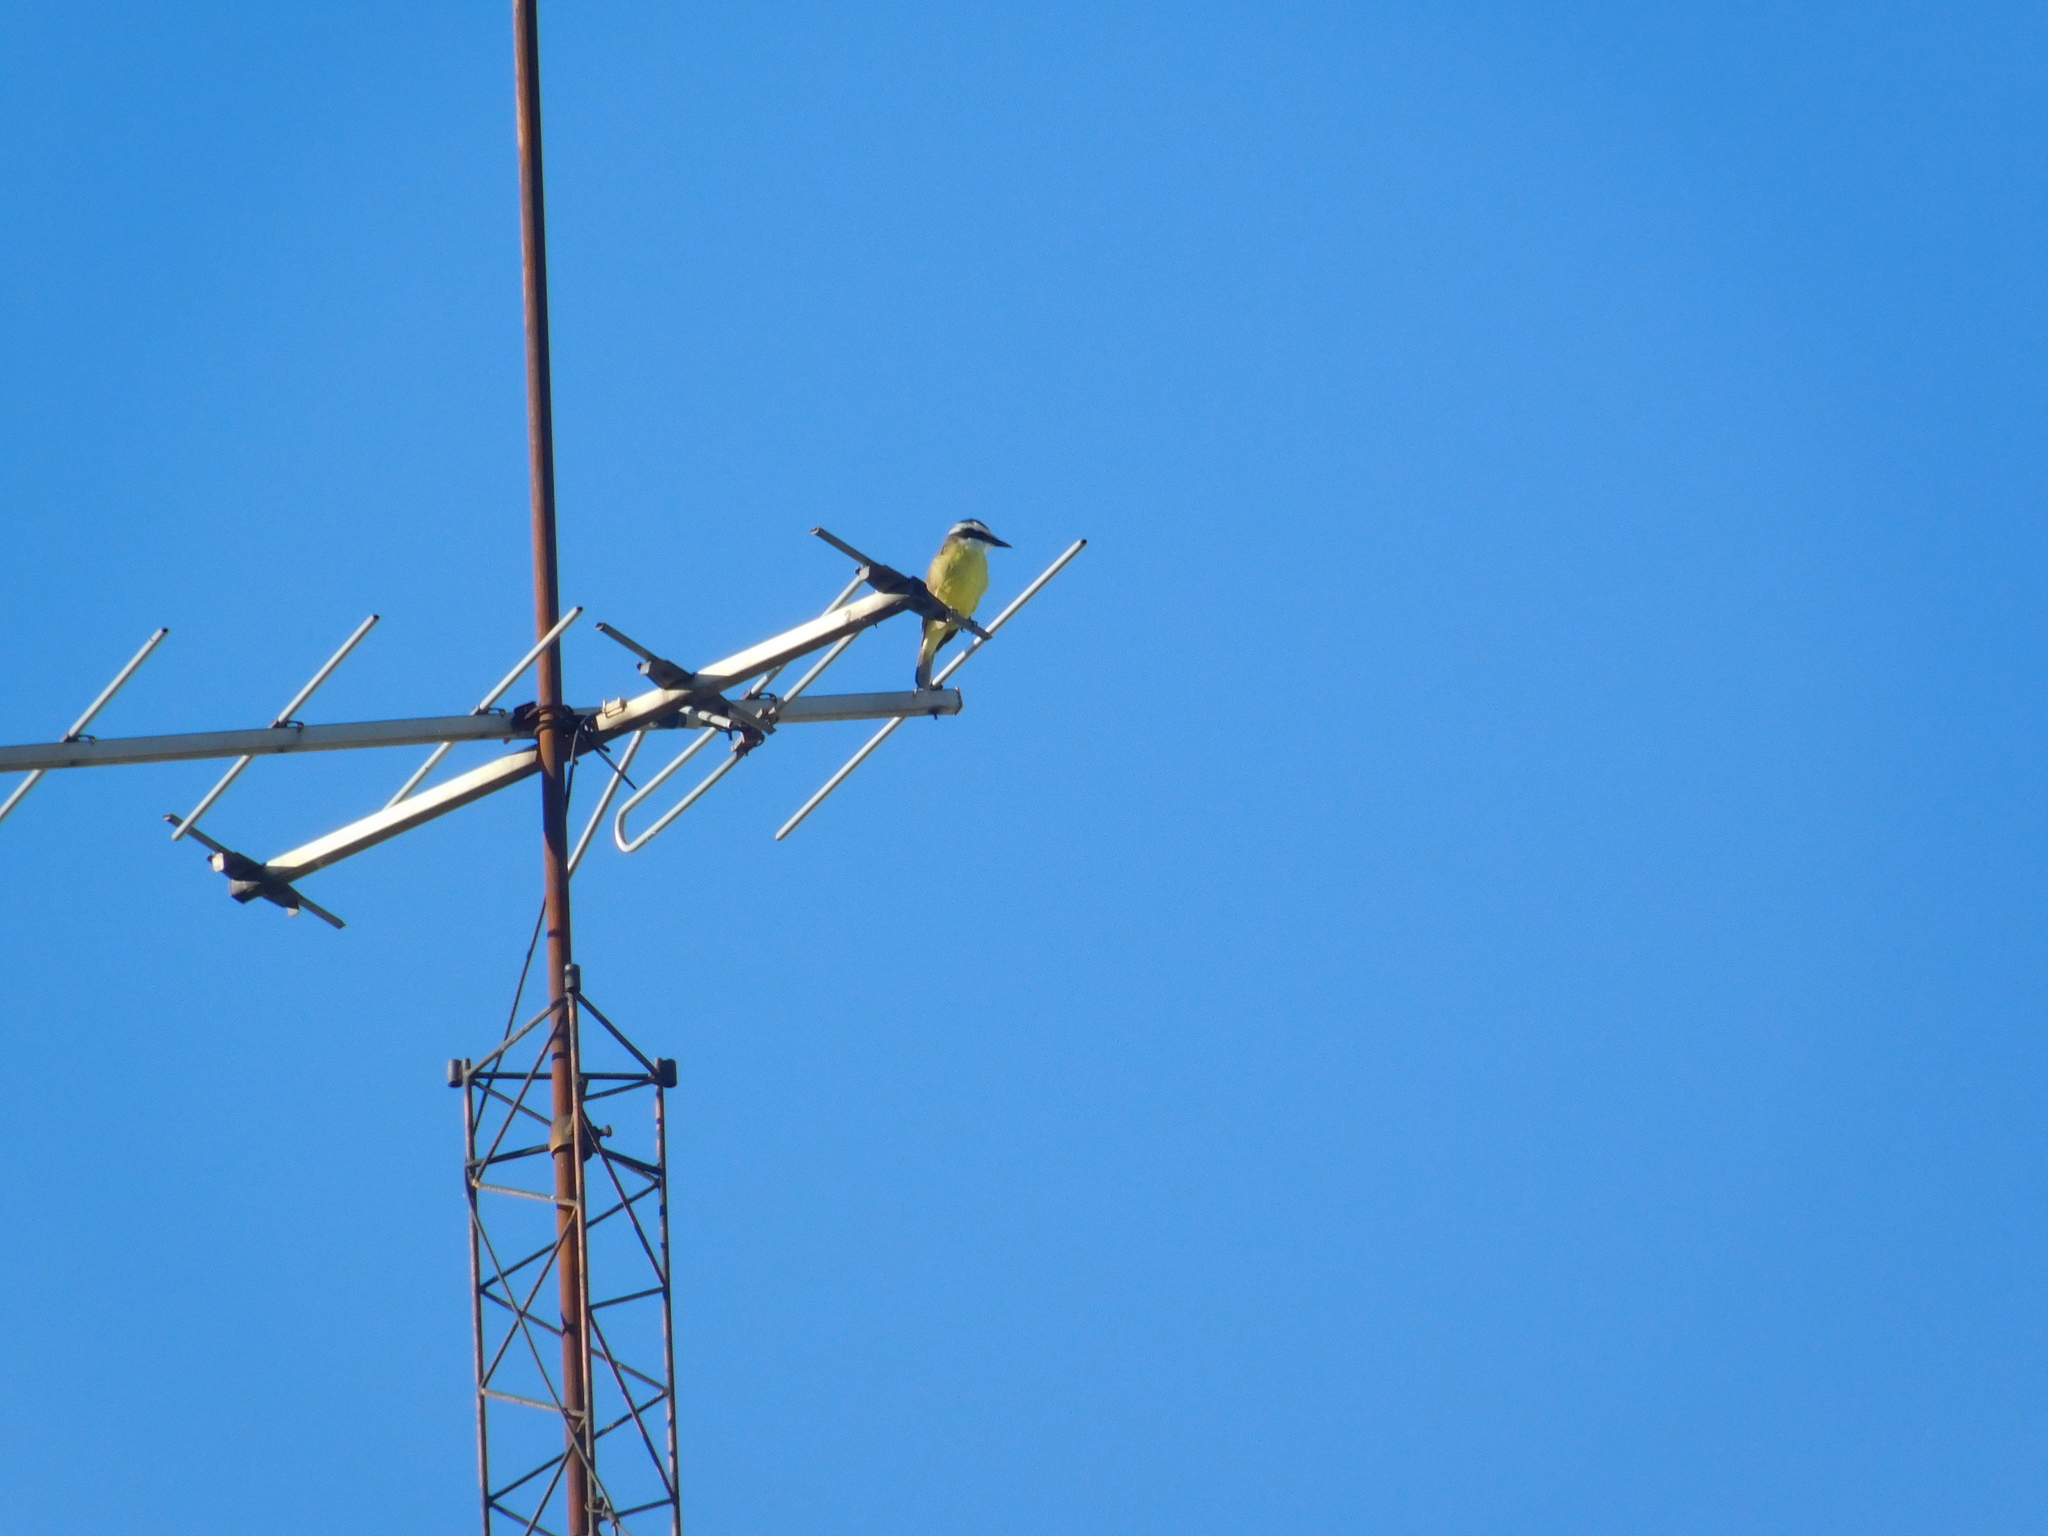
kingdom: Animalia
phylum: Chordata
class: Aves
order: Passeriformes
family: Tyrannidae
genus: Pitangus
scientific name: Pitangus sulphuratus
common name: Great kiskadee
